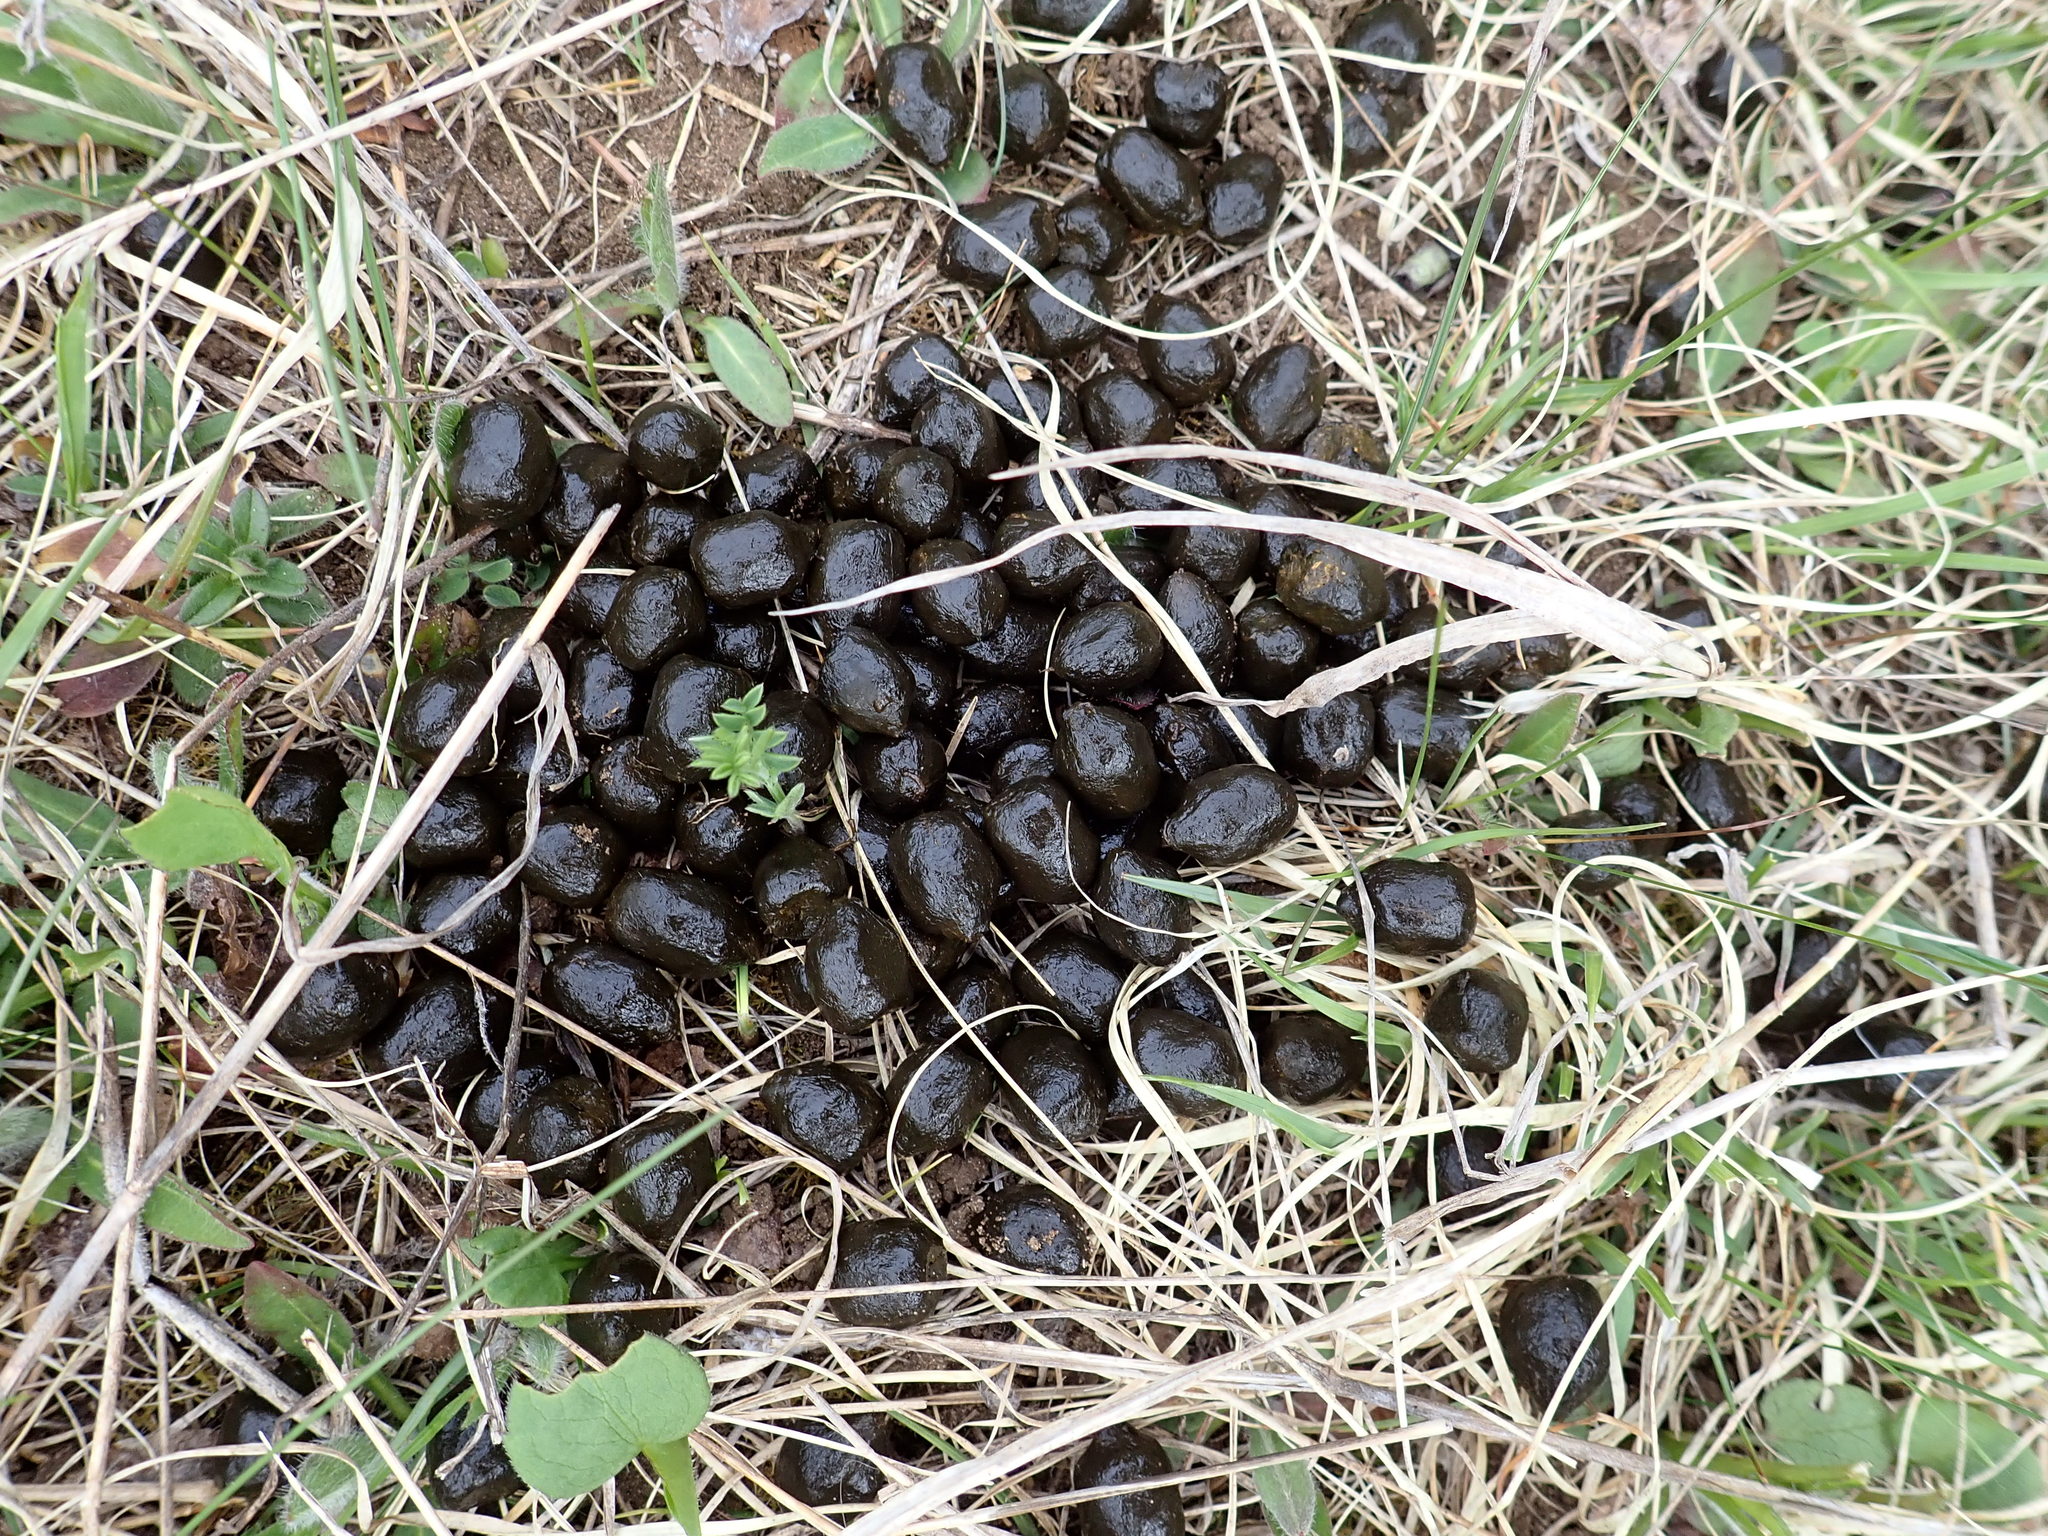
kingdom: Animalia
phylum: Chordata
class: Mammalia
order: Artiodactyla
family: Cervidae
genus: Odocoileus
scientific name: Odocoileus virginianus
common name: White-tailed deer
